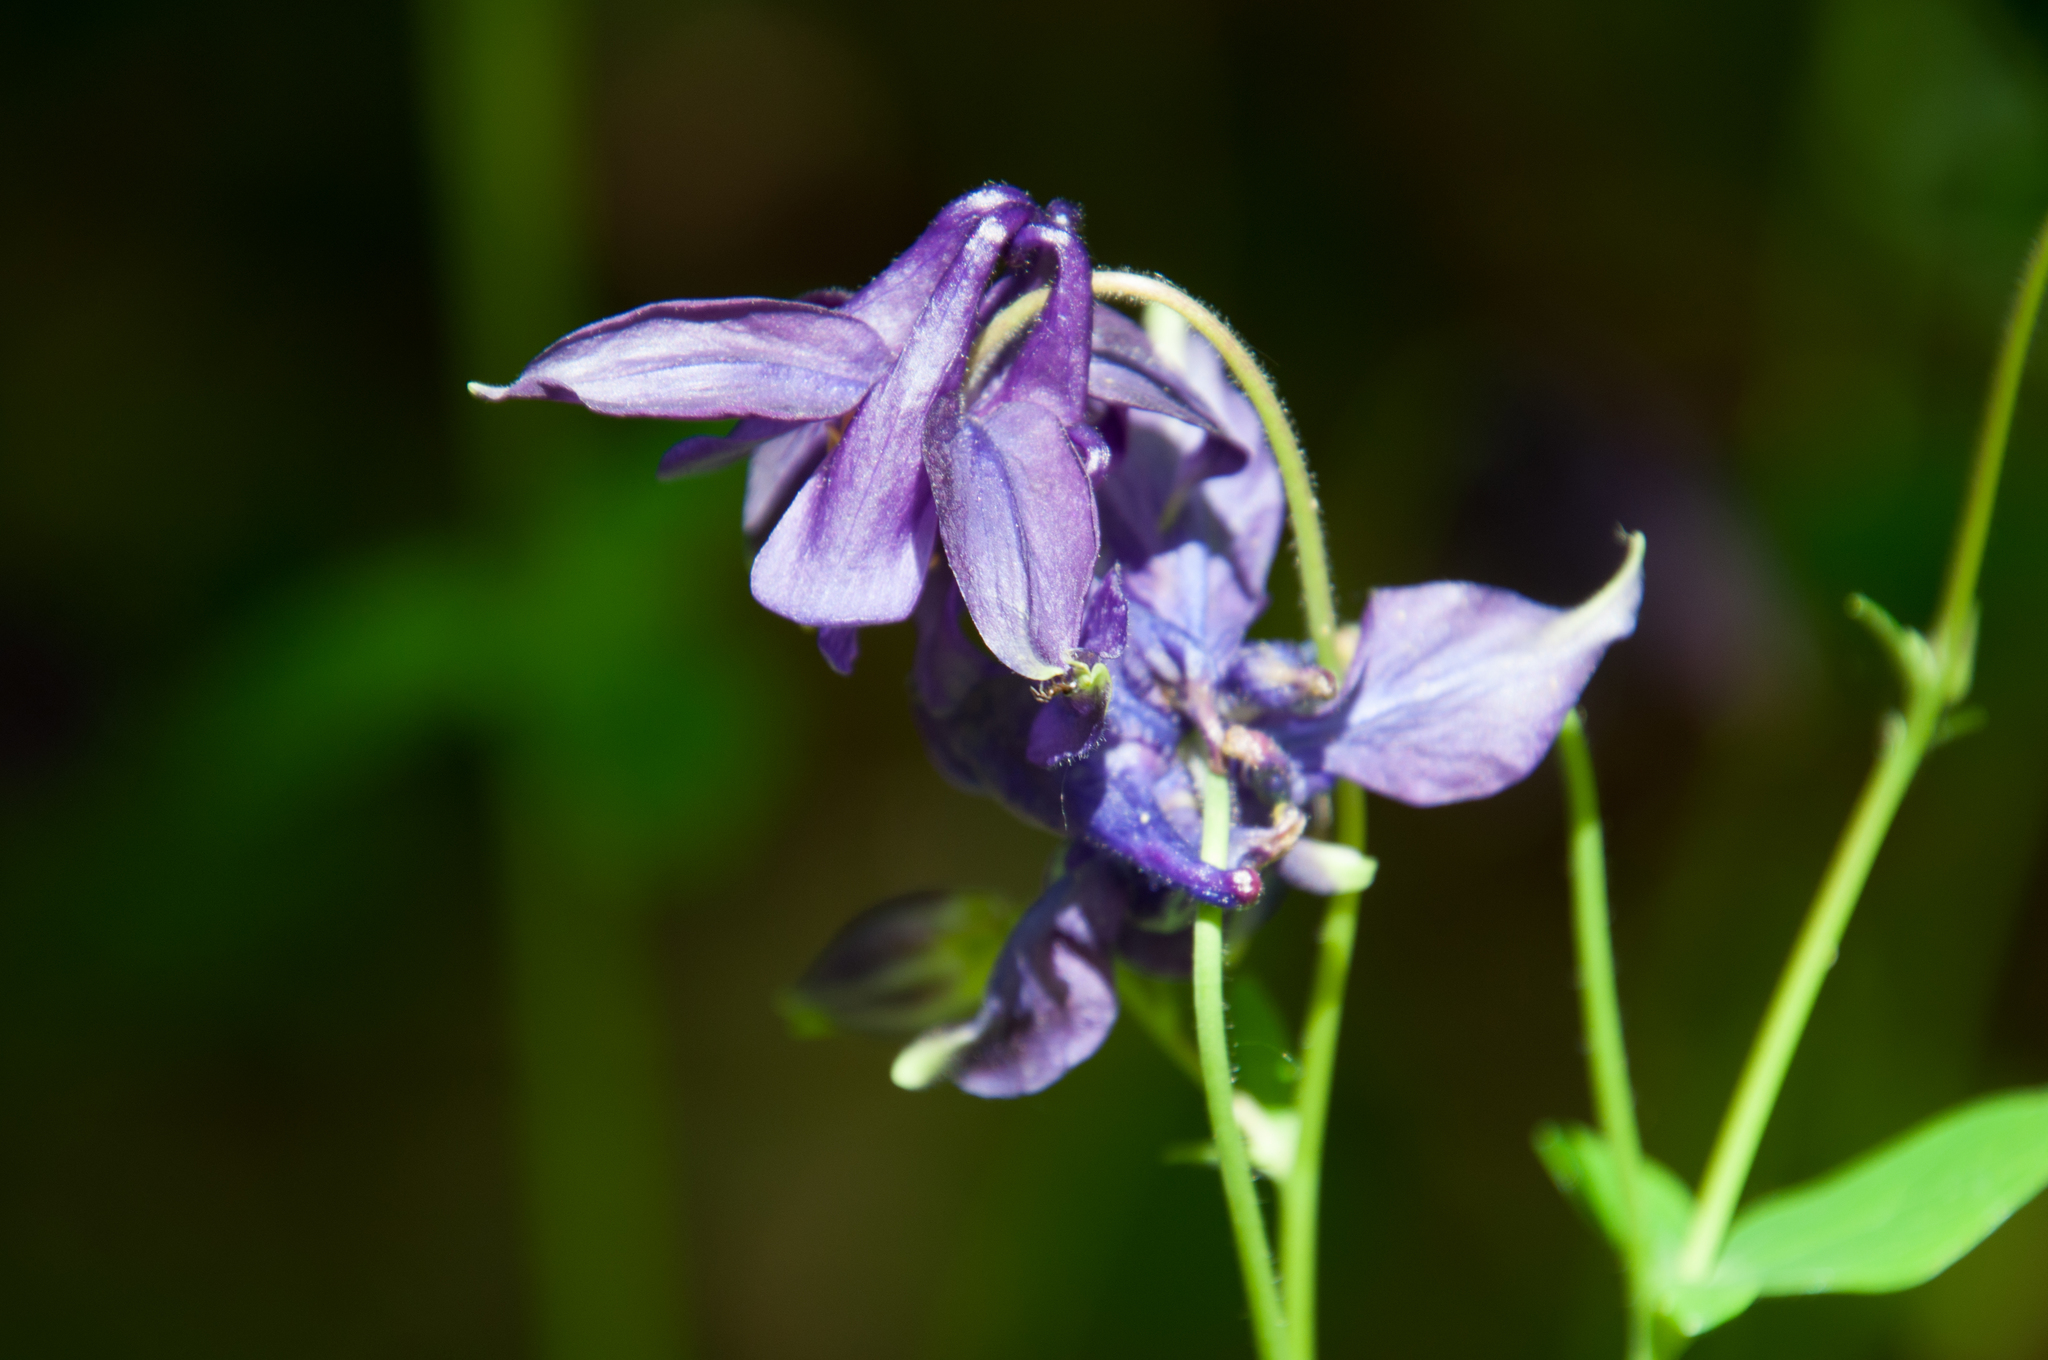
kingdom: Plantae
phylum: Tracheophyta
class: Magnoliopsida
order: Ranunculales
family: Ranunculaceae
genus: Aquilegia
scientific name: Aquilegia vulgaris
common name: Columbine
